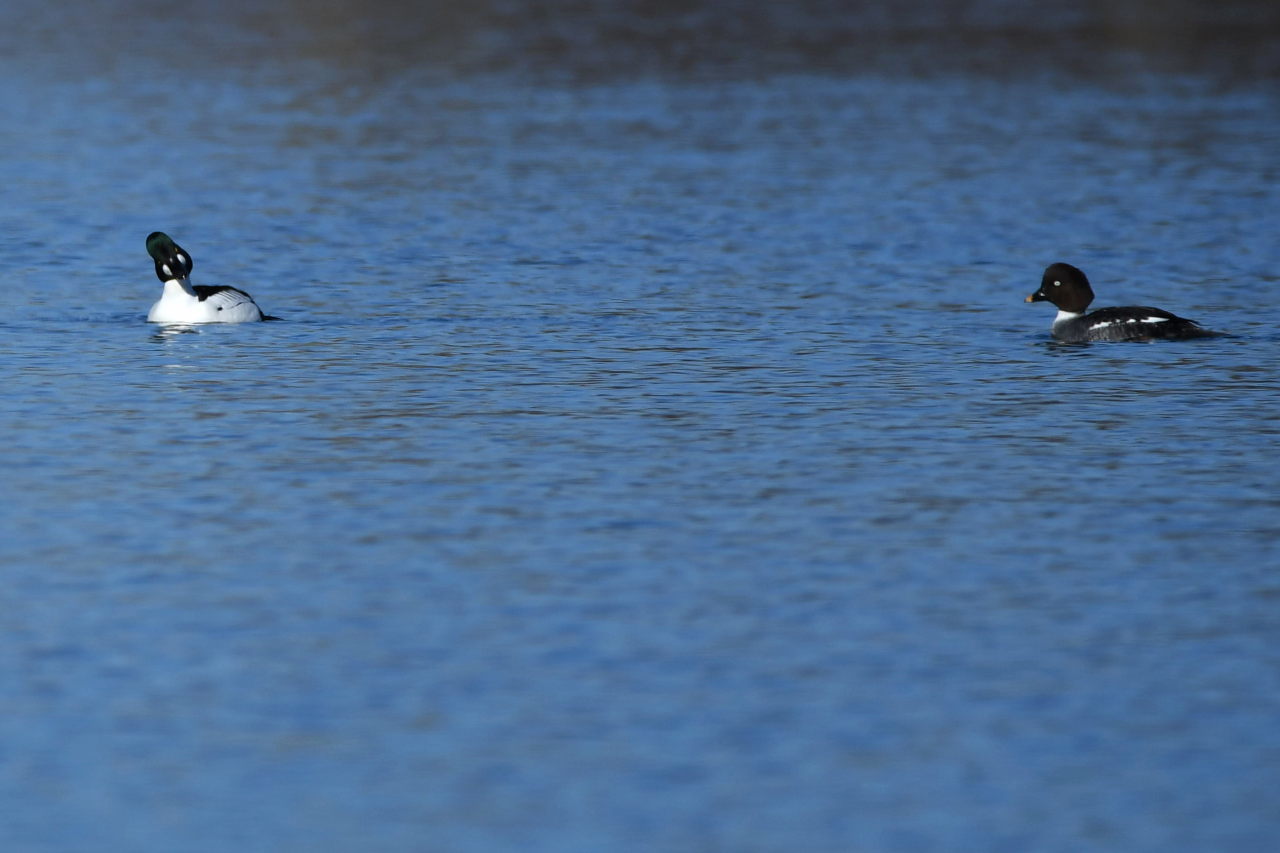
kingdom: Animalia
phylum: Chordata
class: Aves
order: Anseriformes
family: Anatidae
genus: Bucephala
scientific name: Bucephala clangula
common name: Common goldeneye
